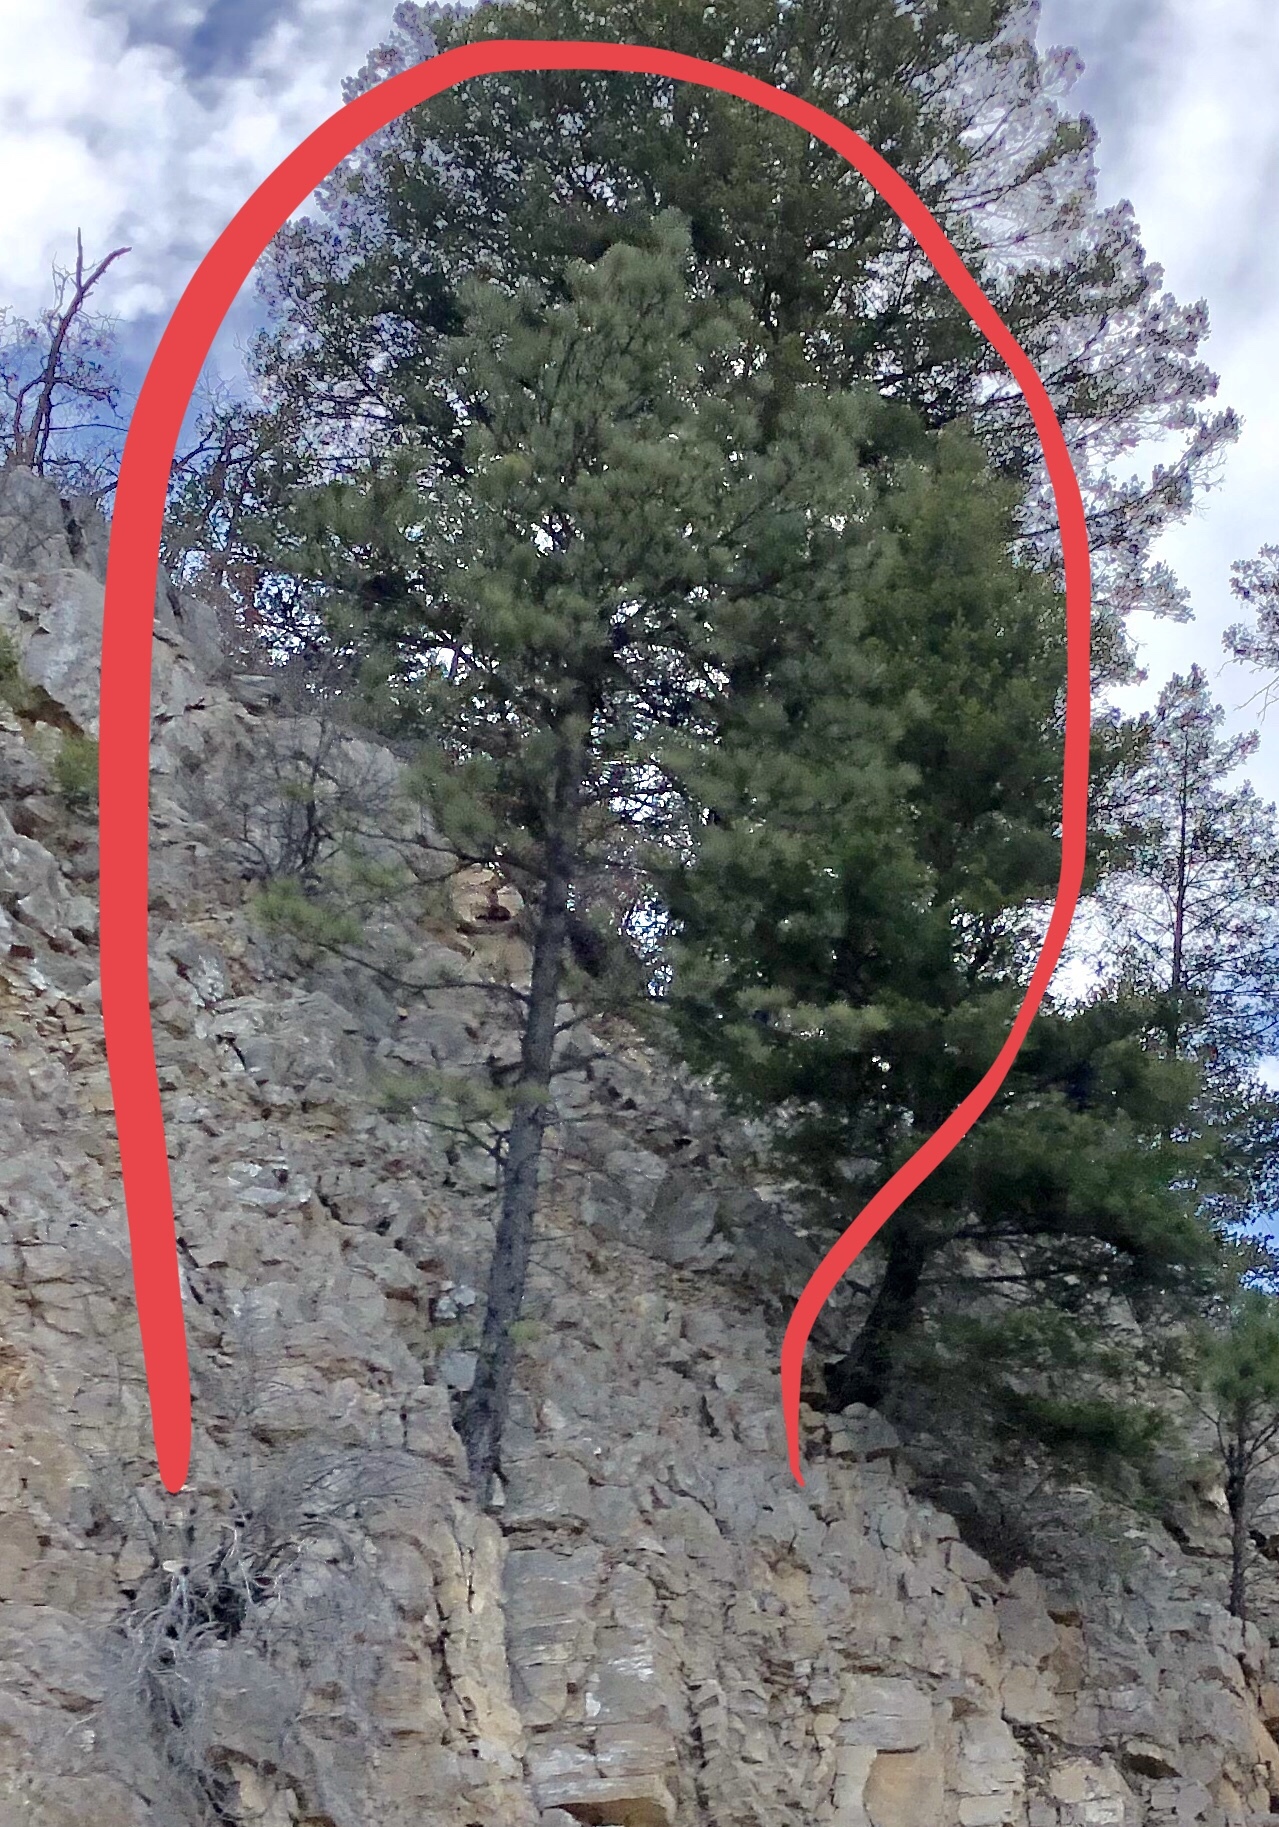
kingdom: Plantae
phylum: Tracheophyta
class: Pinopsida
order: Pinales
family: Pinaceae
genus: Pinus
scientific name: Pinus ponderosa
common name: Western yellow-pine
